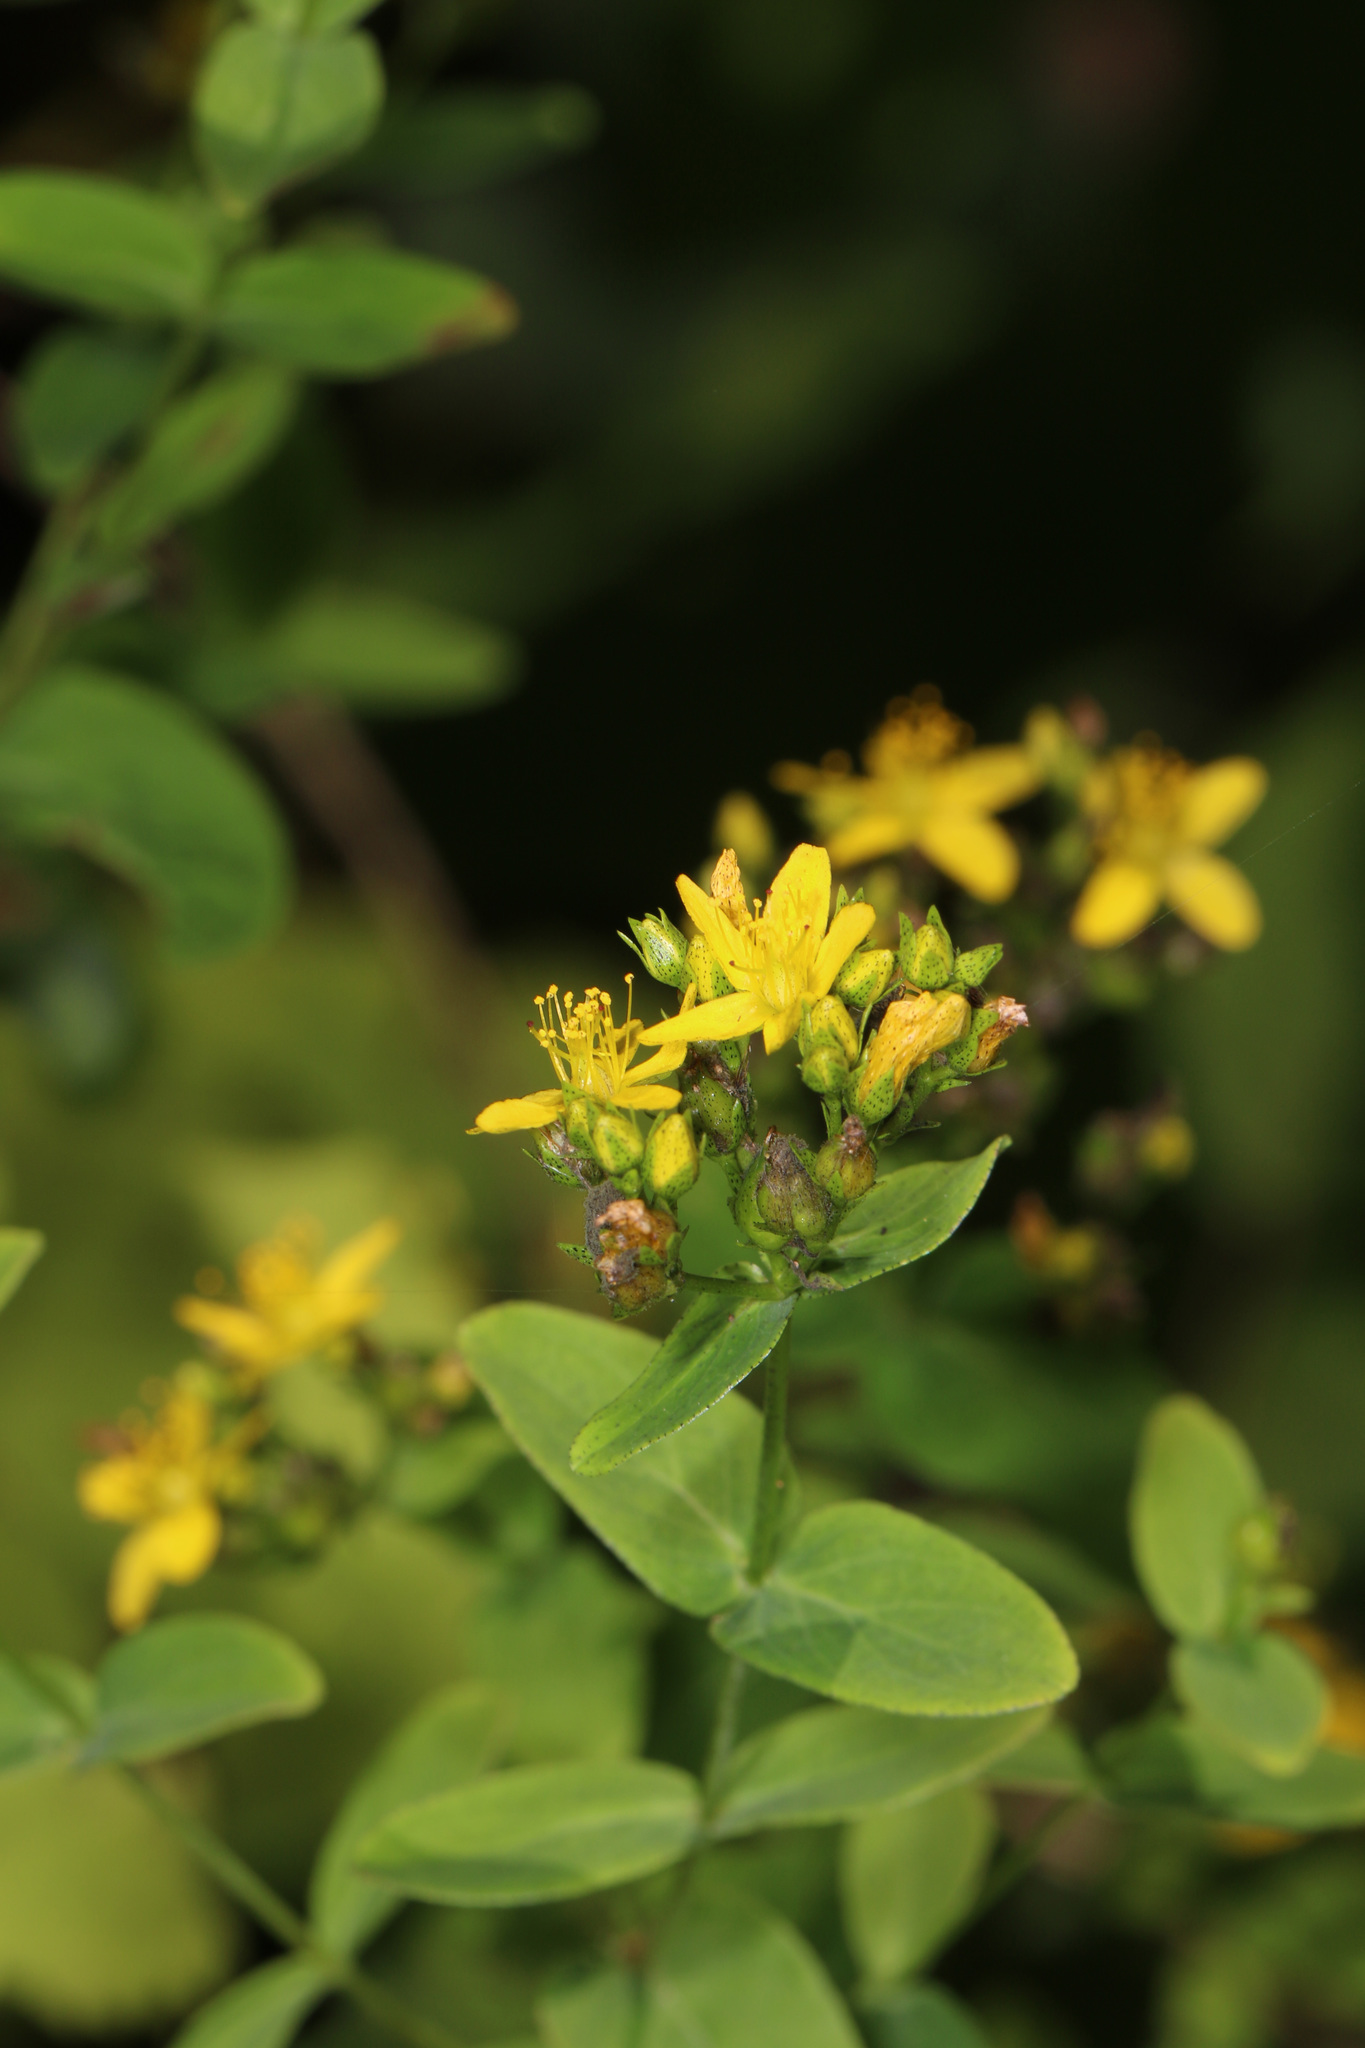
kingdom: Plantae
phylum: Tracheophyta
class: Magnoliopsida
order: Malpighiales
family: Hypericaceae
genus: Hypericum
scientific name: Hypericum punctatum
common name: Spotted st. john's-wort
